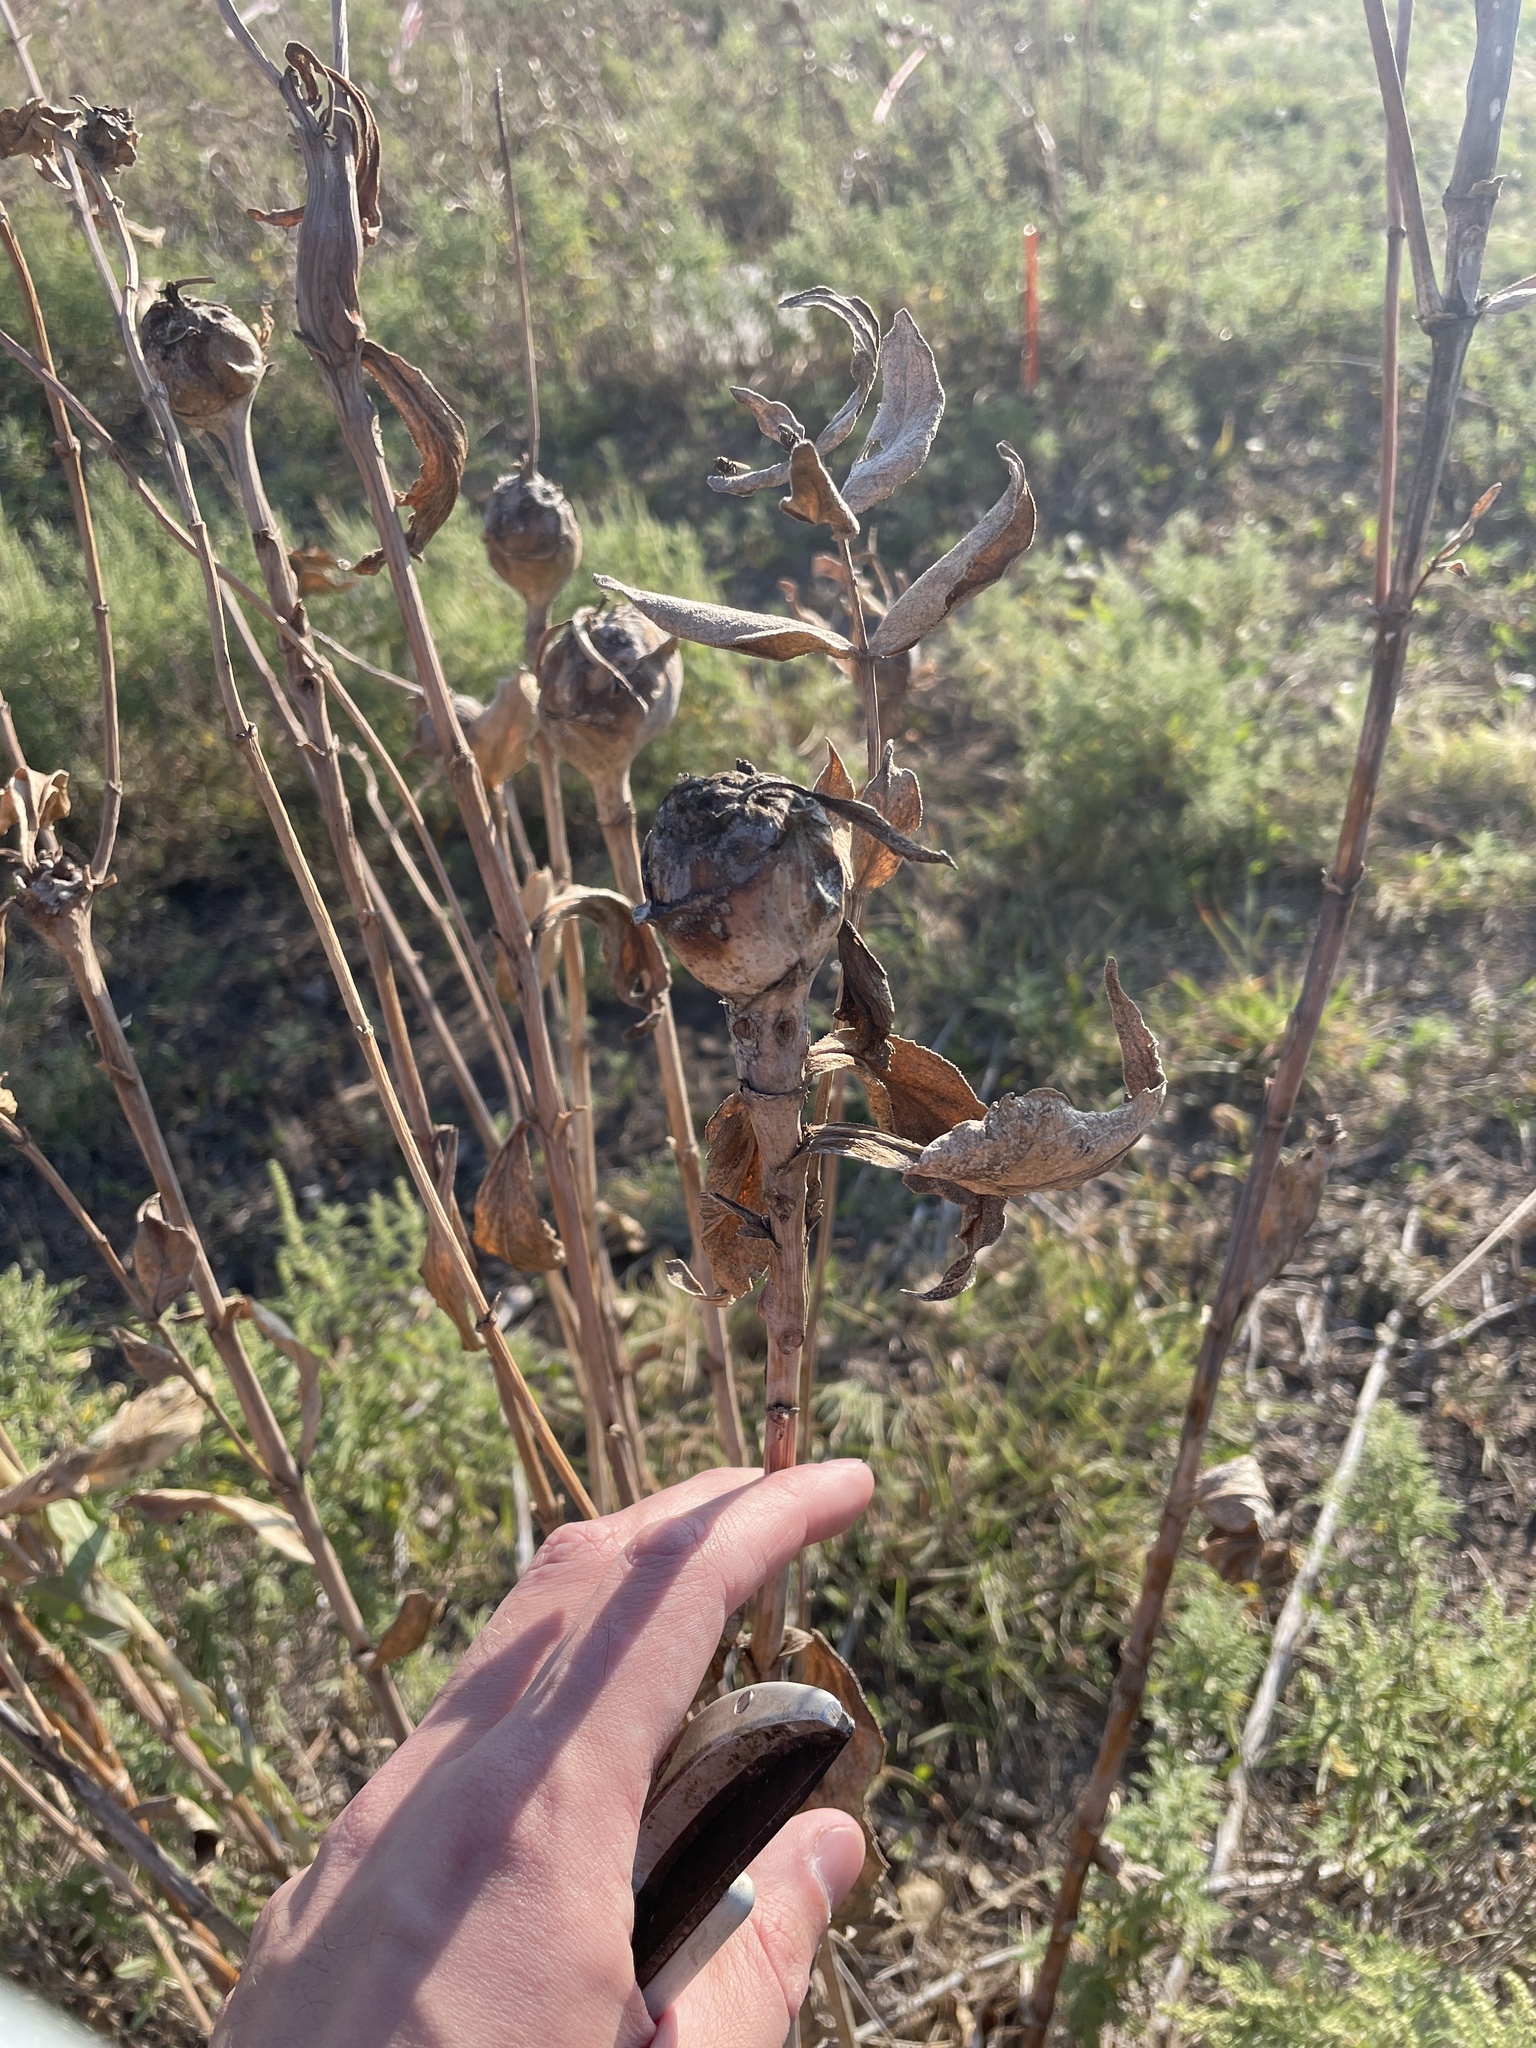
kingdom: Animalia
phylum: Arthropoda
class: Insecta
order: Hymenoptera
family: Cynipidae
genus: Antistrophus
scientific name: Antistrophus silphii
